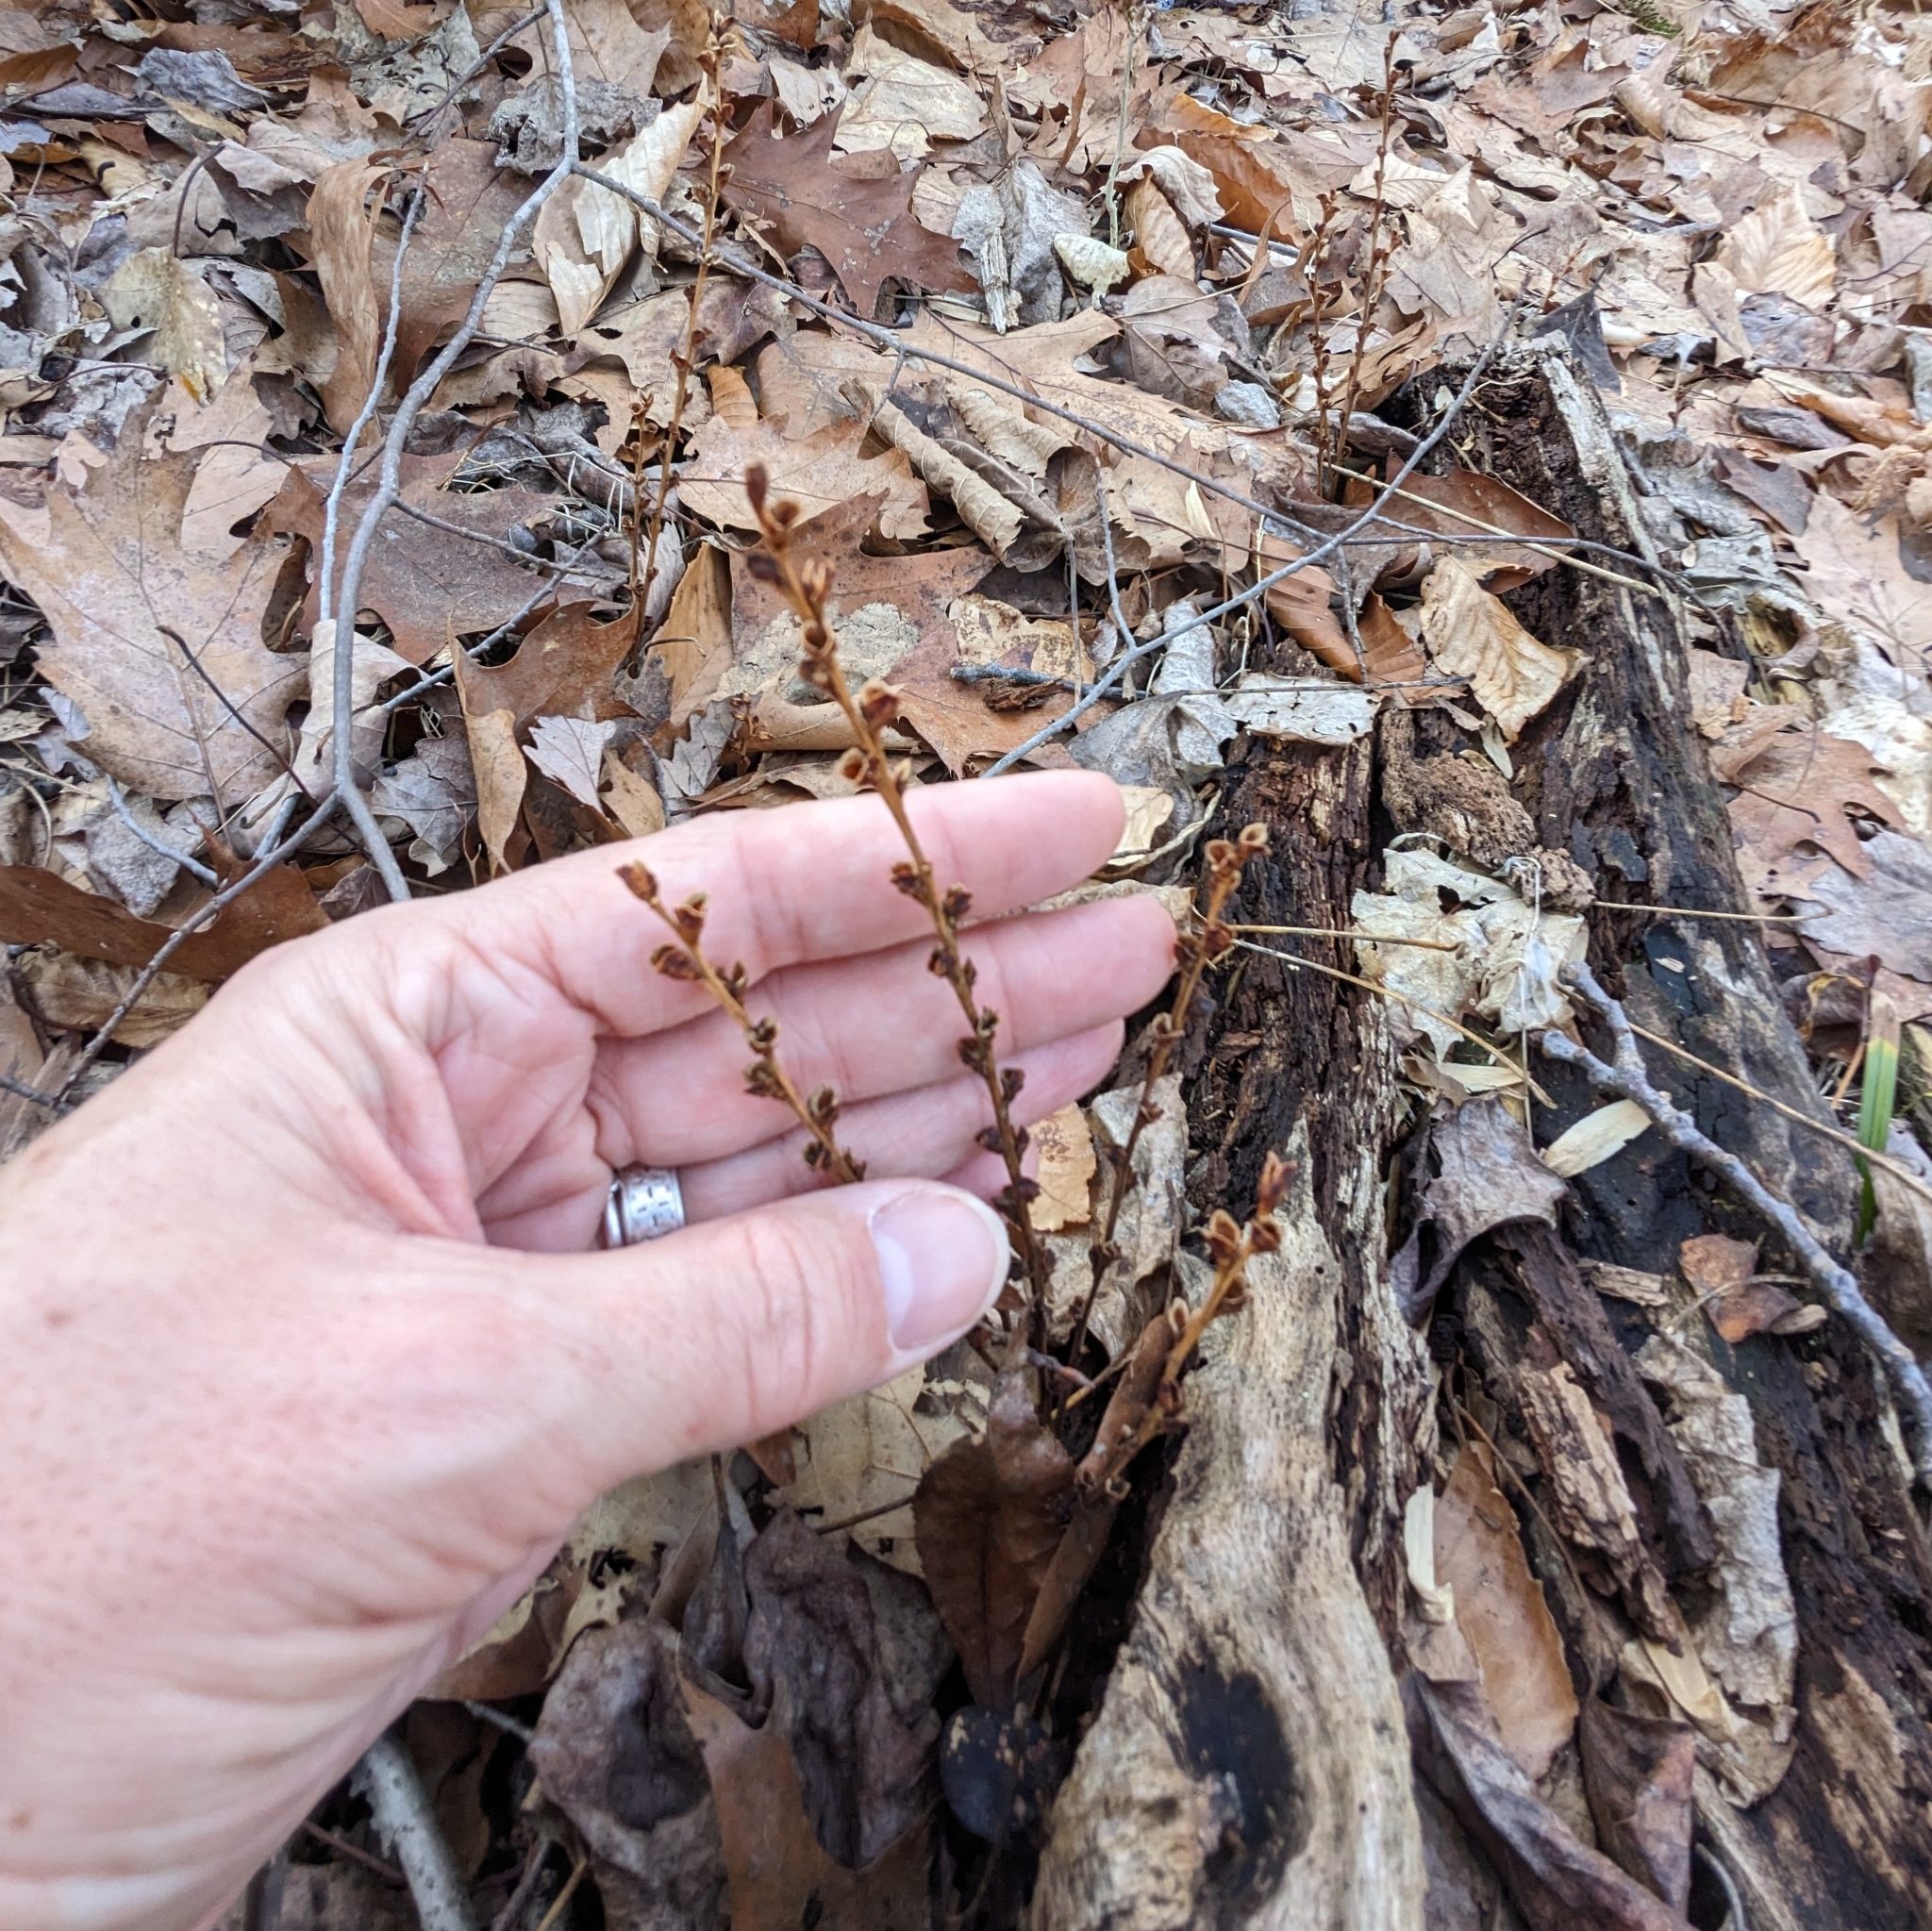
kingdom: Plantae
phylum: Tracheophyta
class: Magnoliopsida
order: Lamiales
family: Orobanchaceae
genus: Epifagus
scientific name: Epifagus virginiana
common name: Beechdrops
